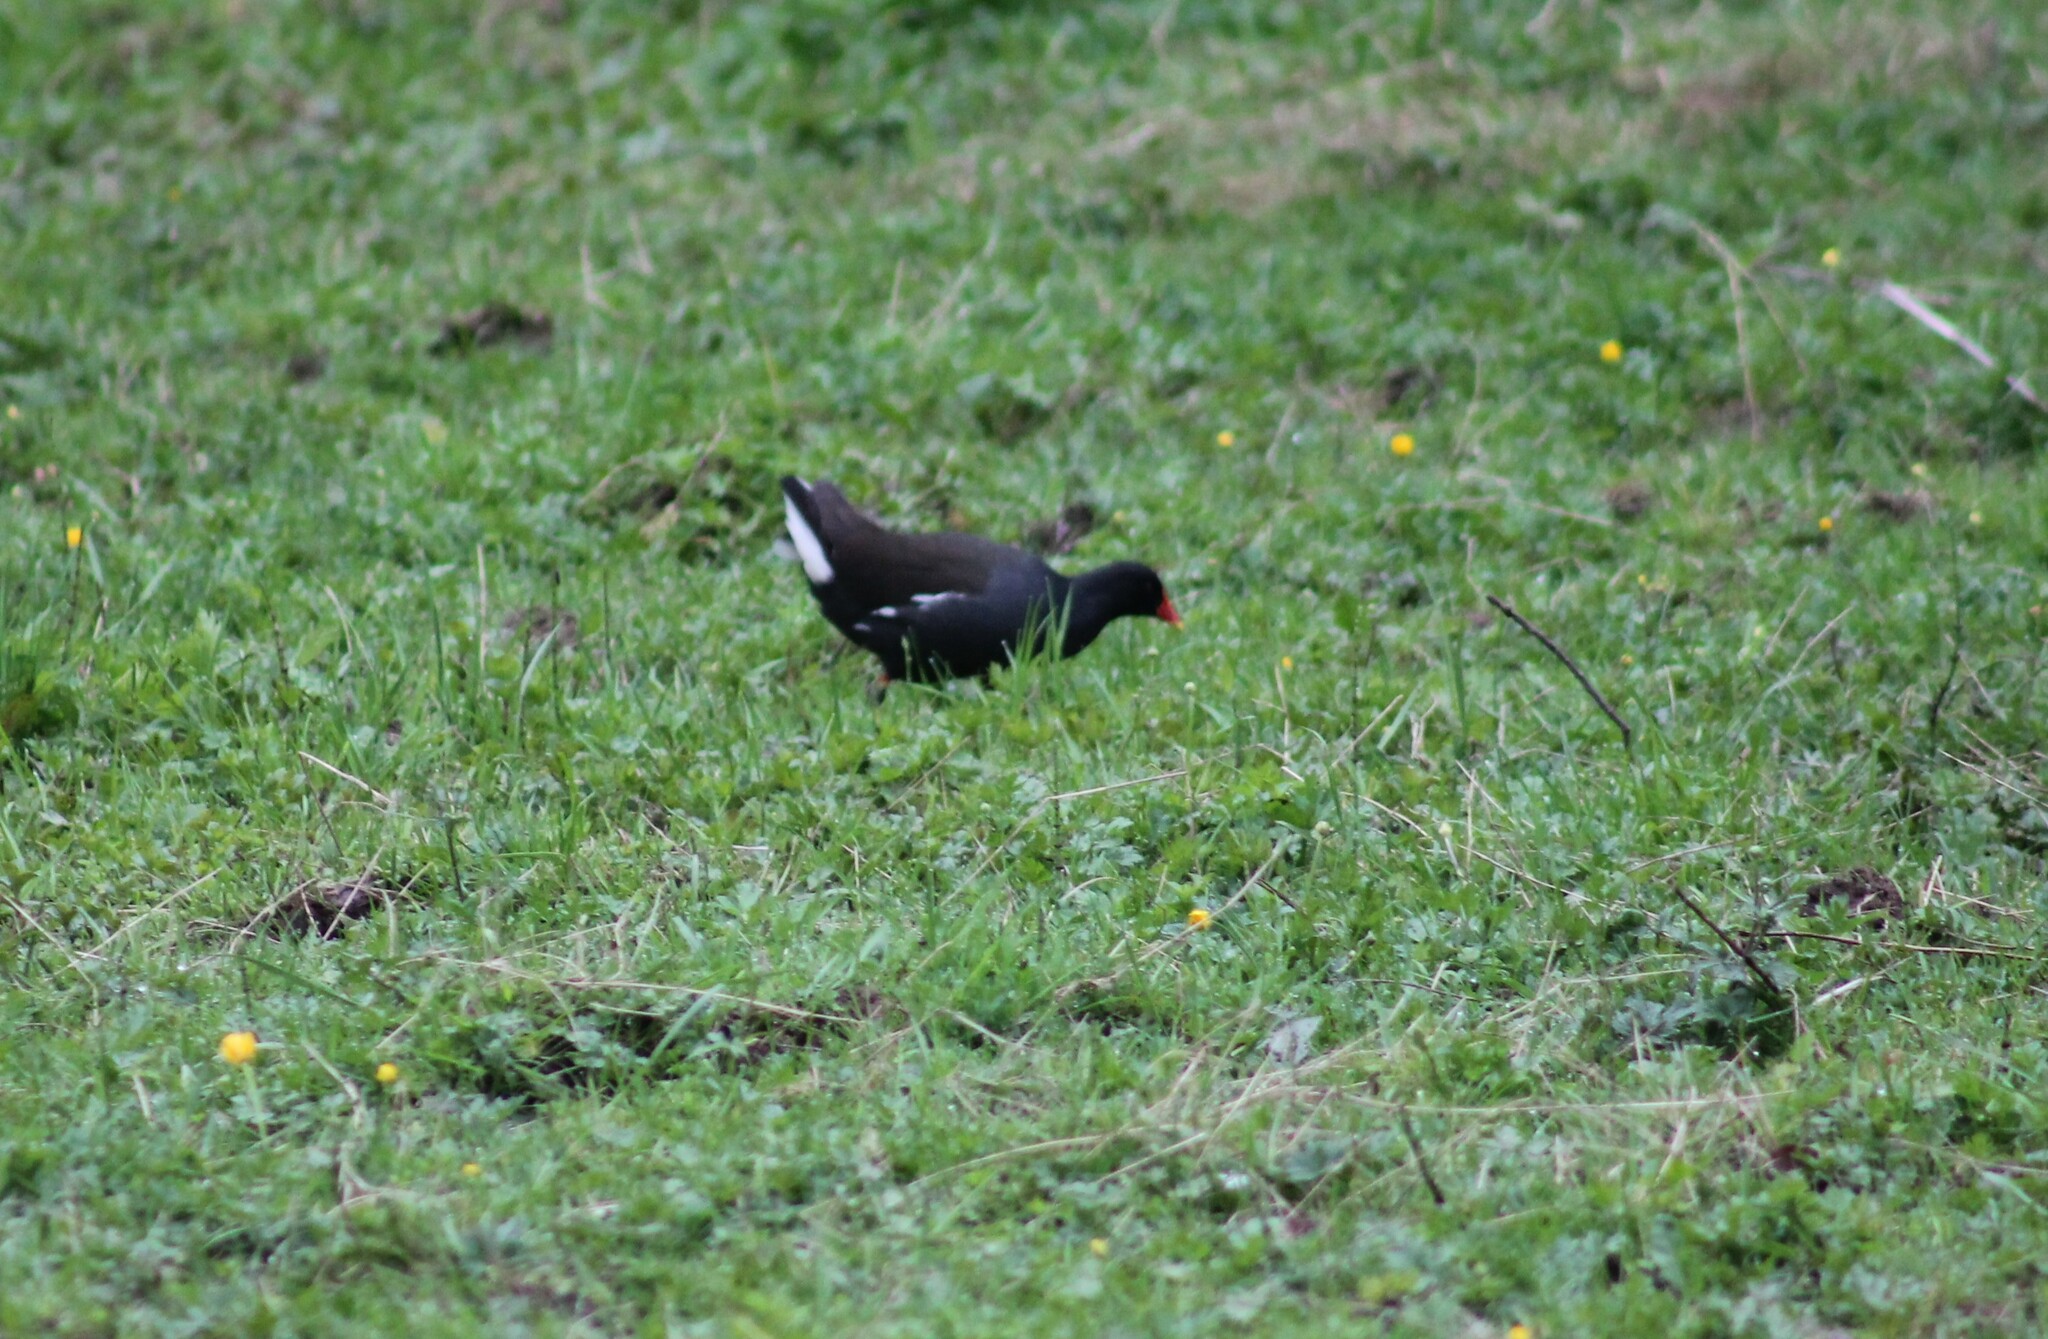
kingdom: Animalia
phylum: Chordata
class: Aves
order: Gruiformes
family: Rallidae
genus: Gallinula
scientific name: Gallinula chloropus
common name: Common moorhen
